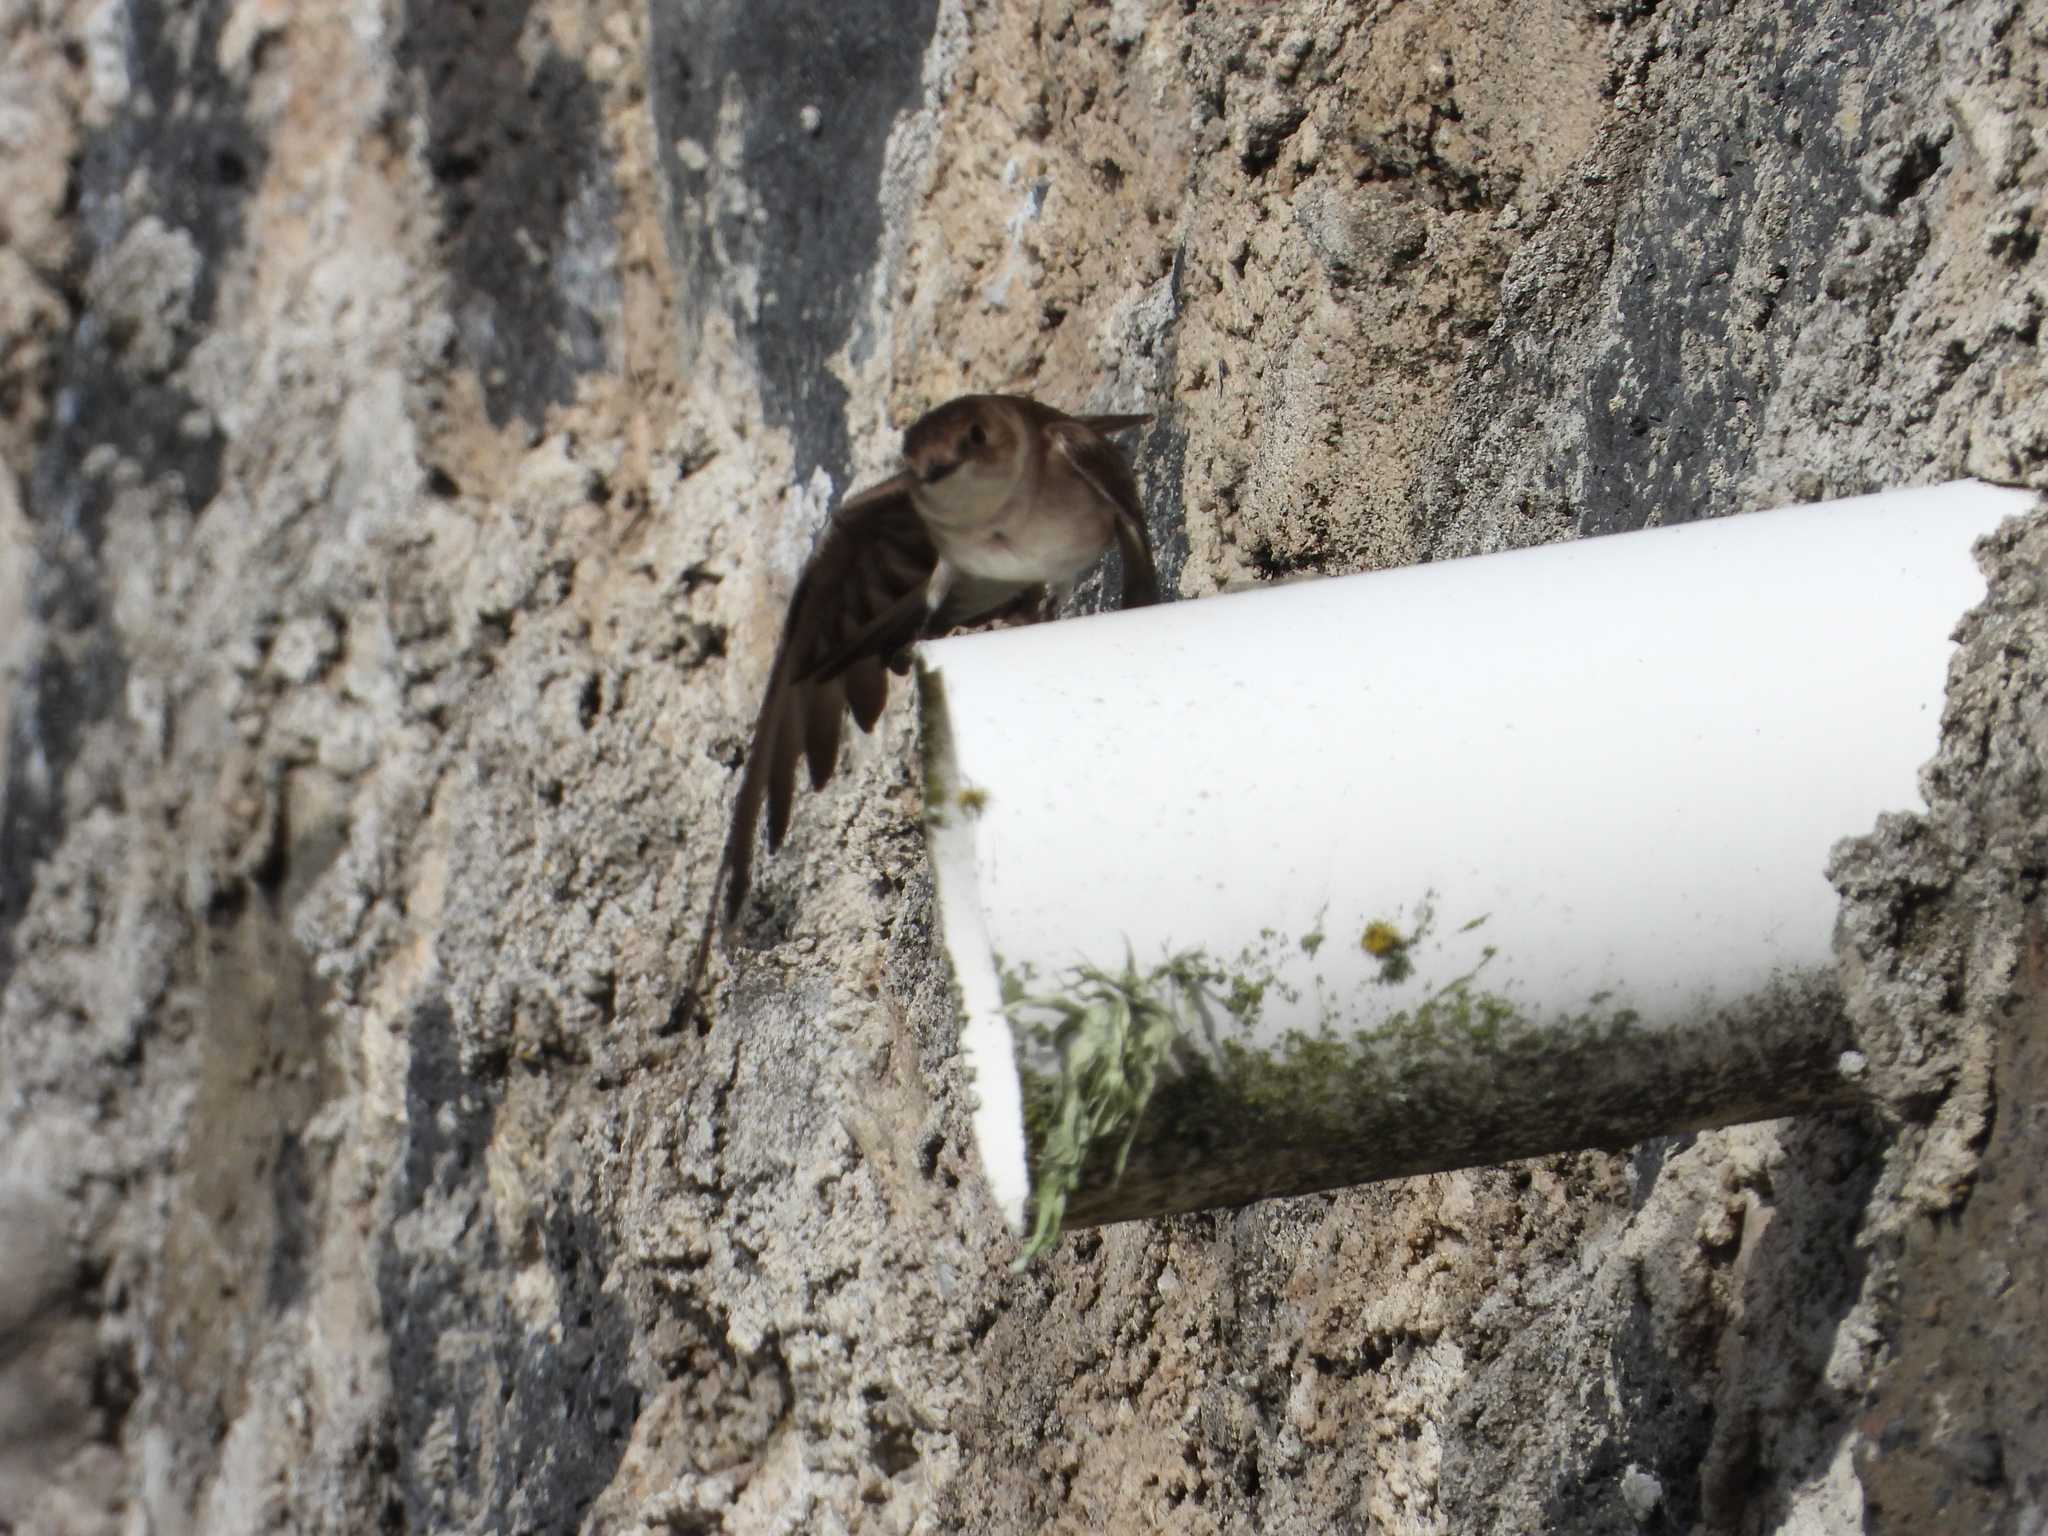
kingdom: Animalia
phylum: Chordata
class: Aves
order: Passeriformes
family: Hirundinidae
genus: Stelgidopteryx
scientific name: Stelgidopteryx serripennis
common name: Northern rough-winged swallow
